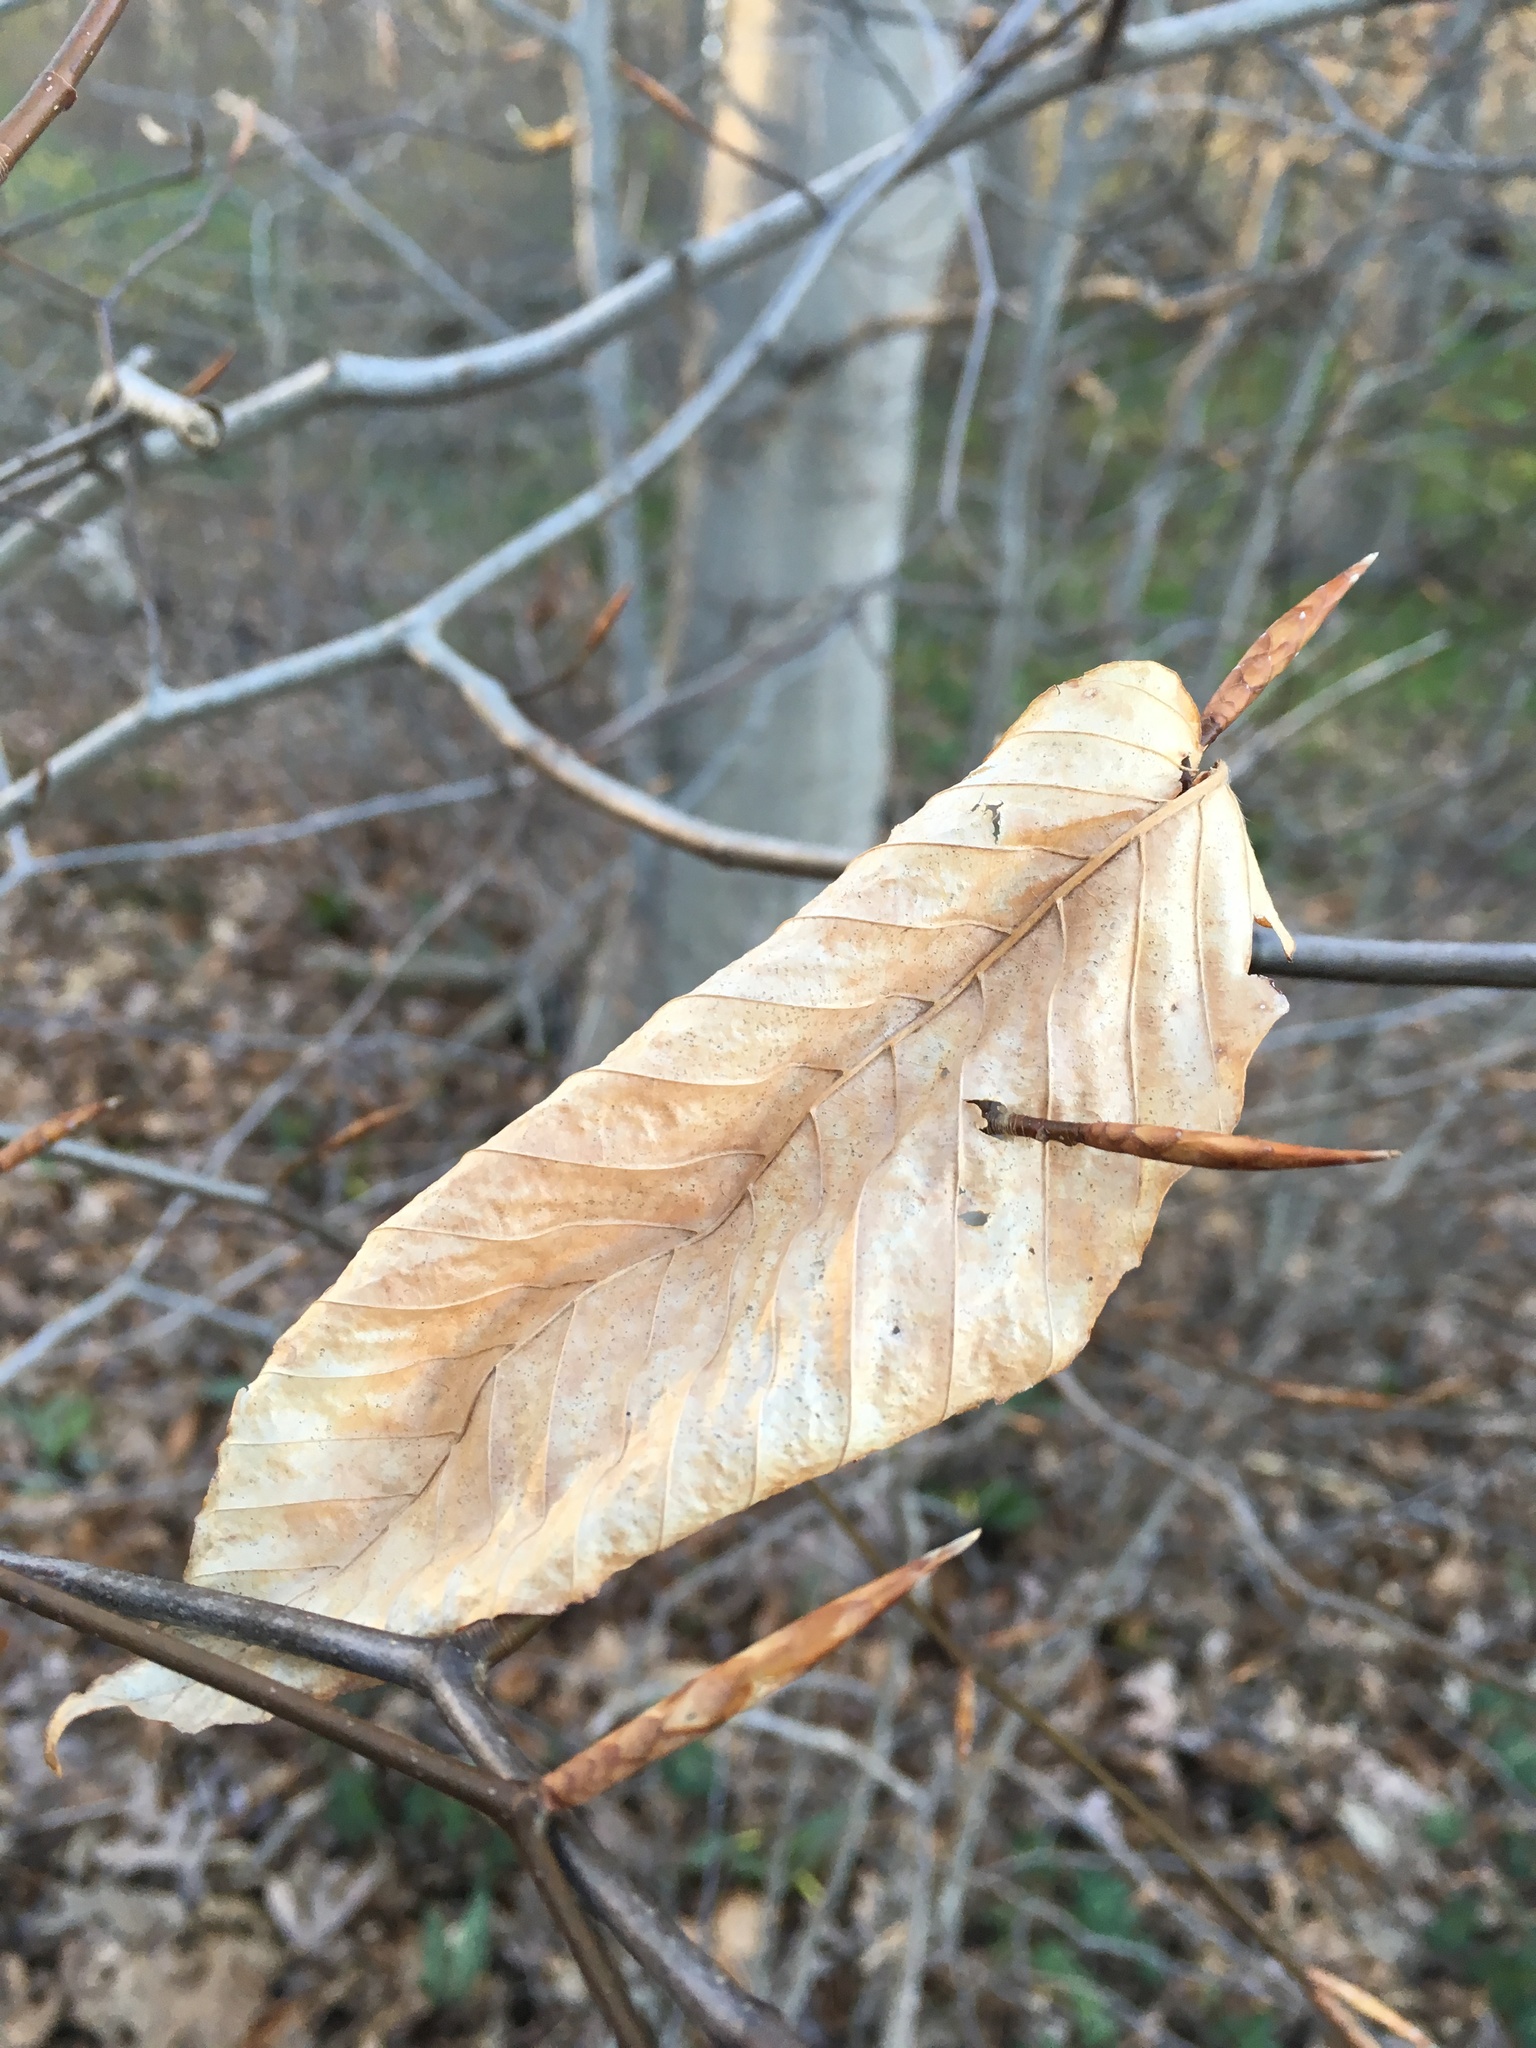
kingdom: Plantae
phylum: Tracheophyta
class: Magnoliopsida
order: Fagales
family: Fagaceae
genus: Fagus
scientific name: Fagus grandifolia
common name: American beech
